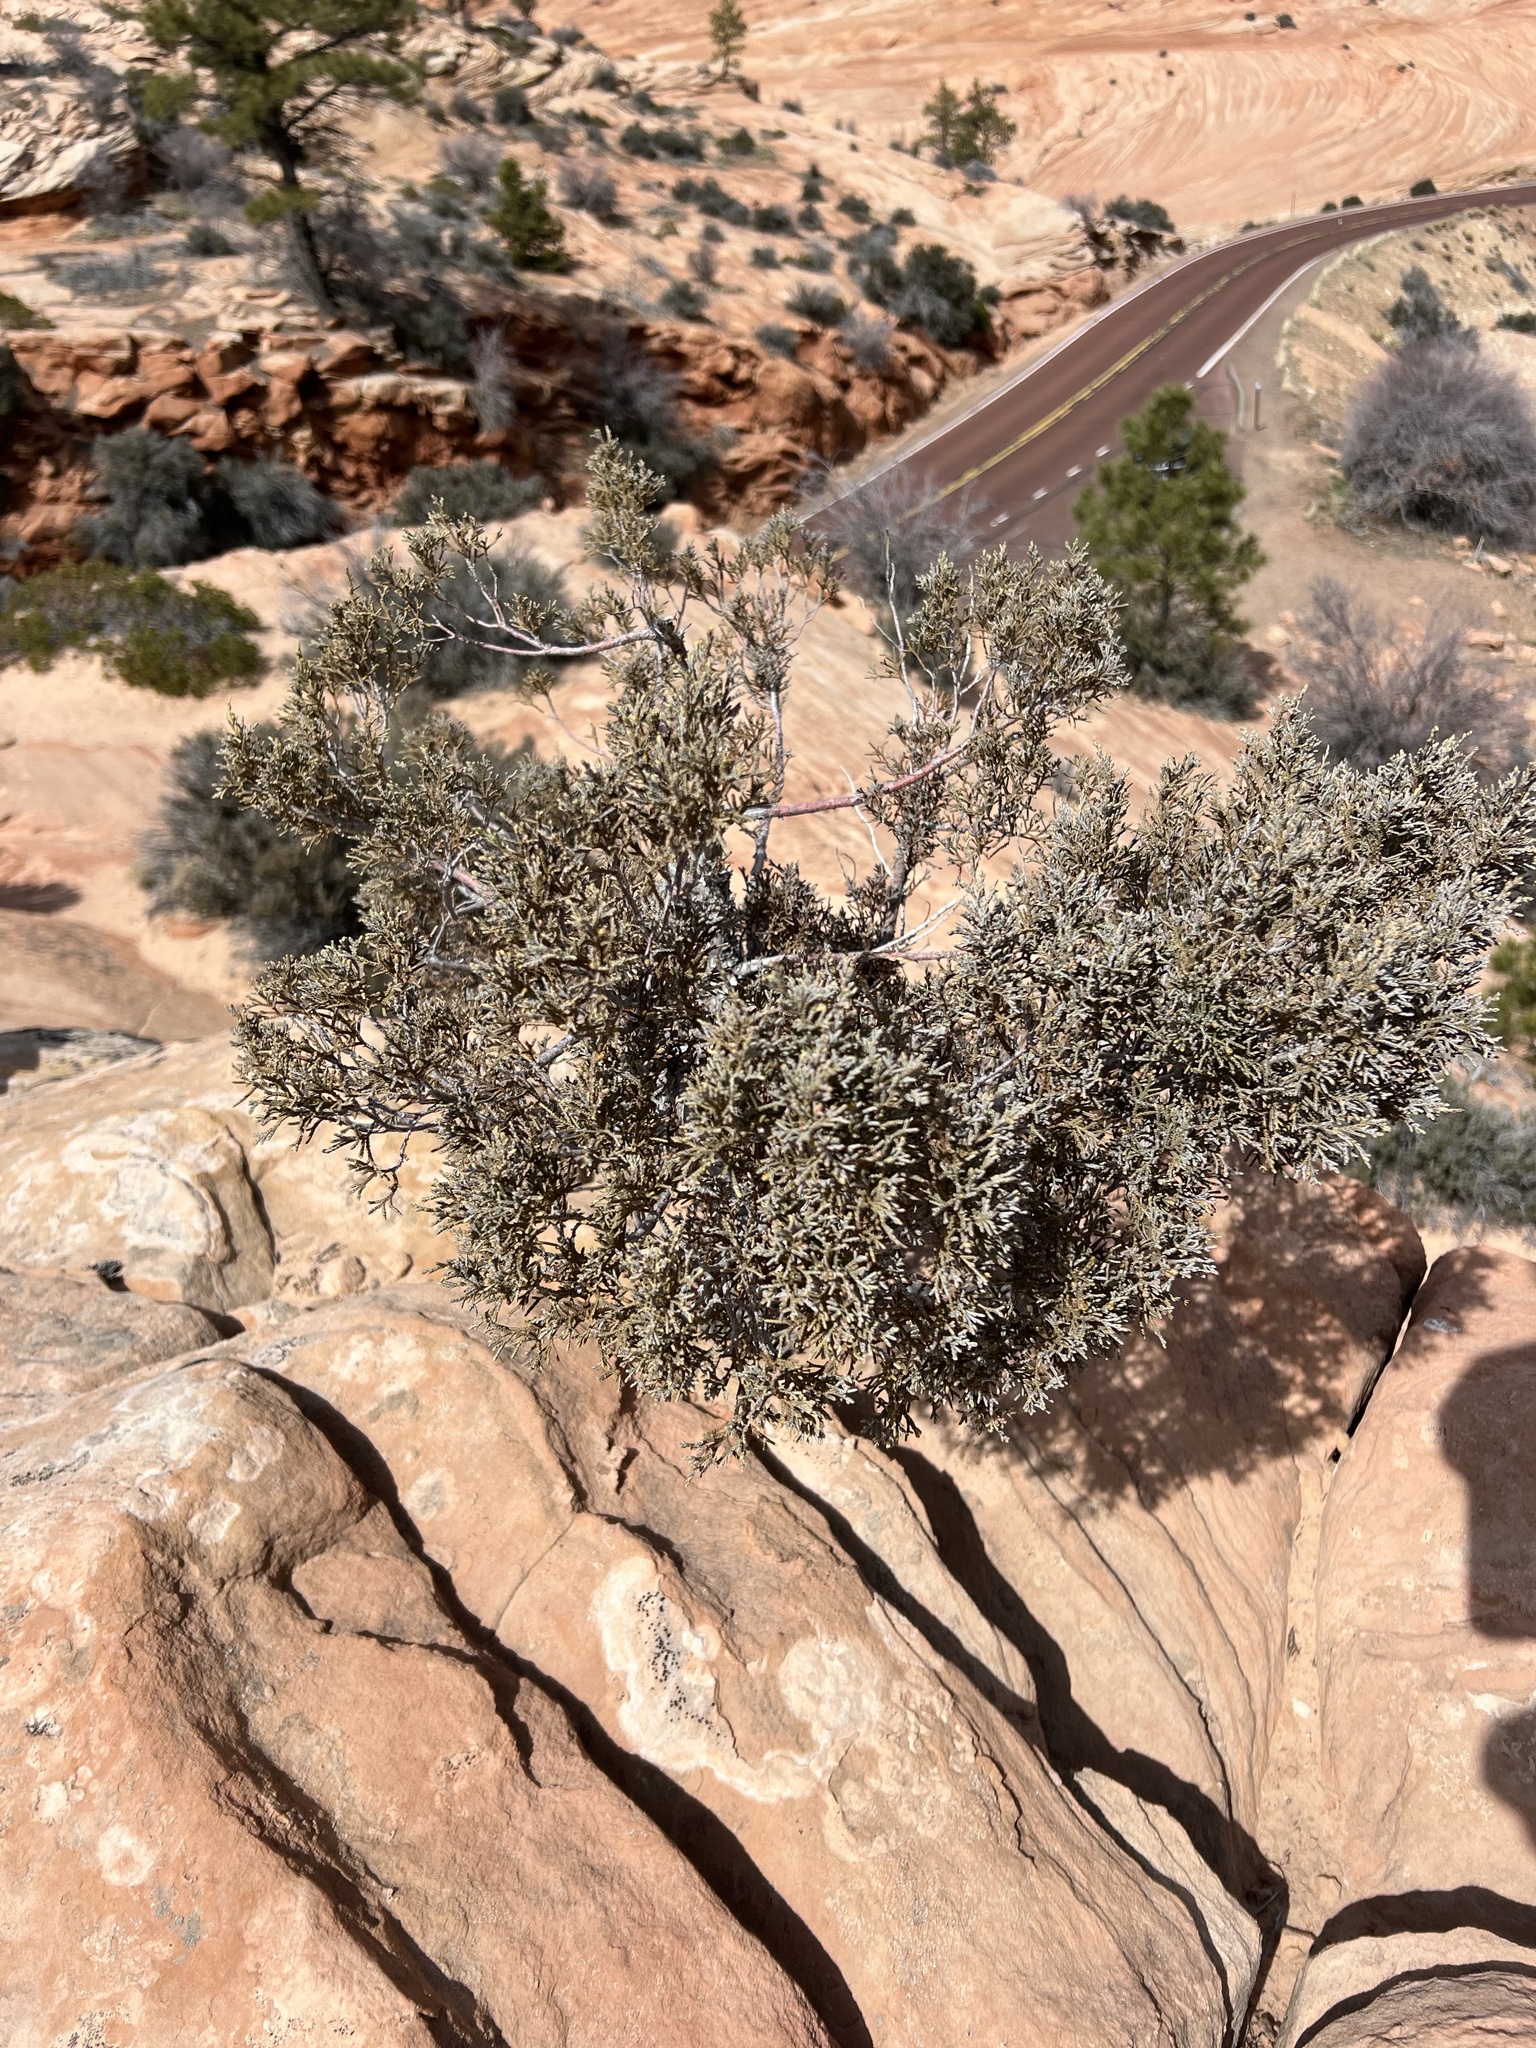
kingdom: Plantae
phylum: Tracheophyta
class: Pinopsida
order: Pinales
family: Cupressaceae
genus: Juniperus
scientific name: Juniperus osteosperma
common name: Utah juniper
